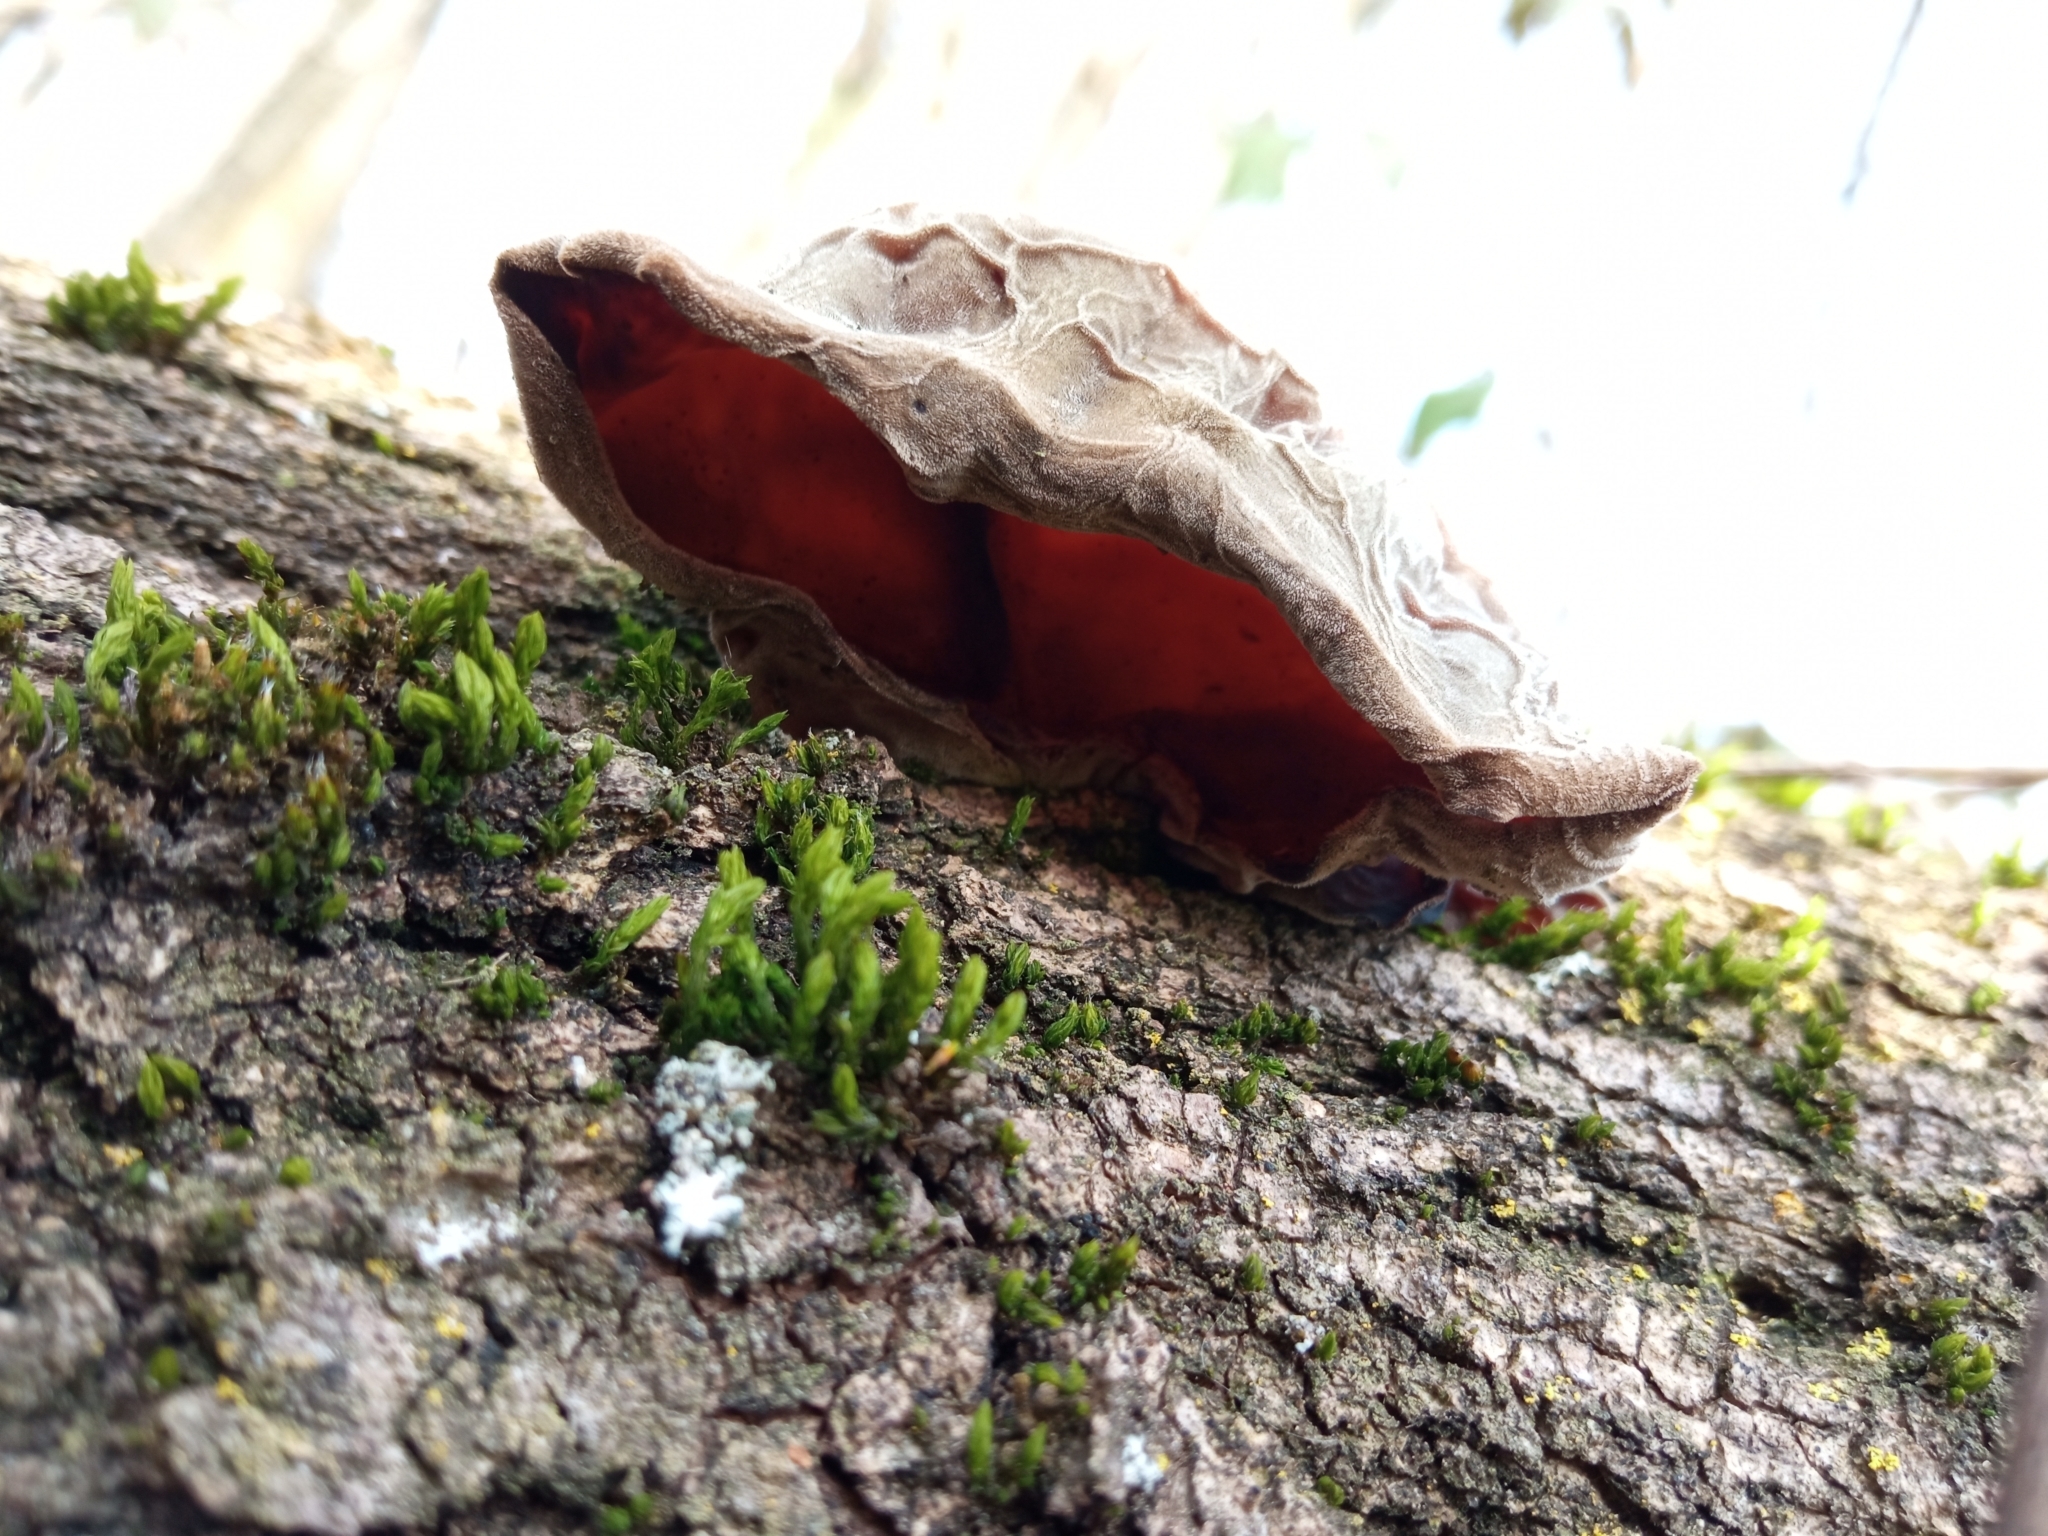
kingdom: Fungi
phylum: Basidiomycota
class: Agaricomycetes
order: Auriculariales
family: Auriculariaceae
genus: Auricularia
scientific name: Auricularia auricula-judae
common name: Jelly ear
